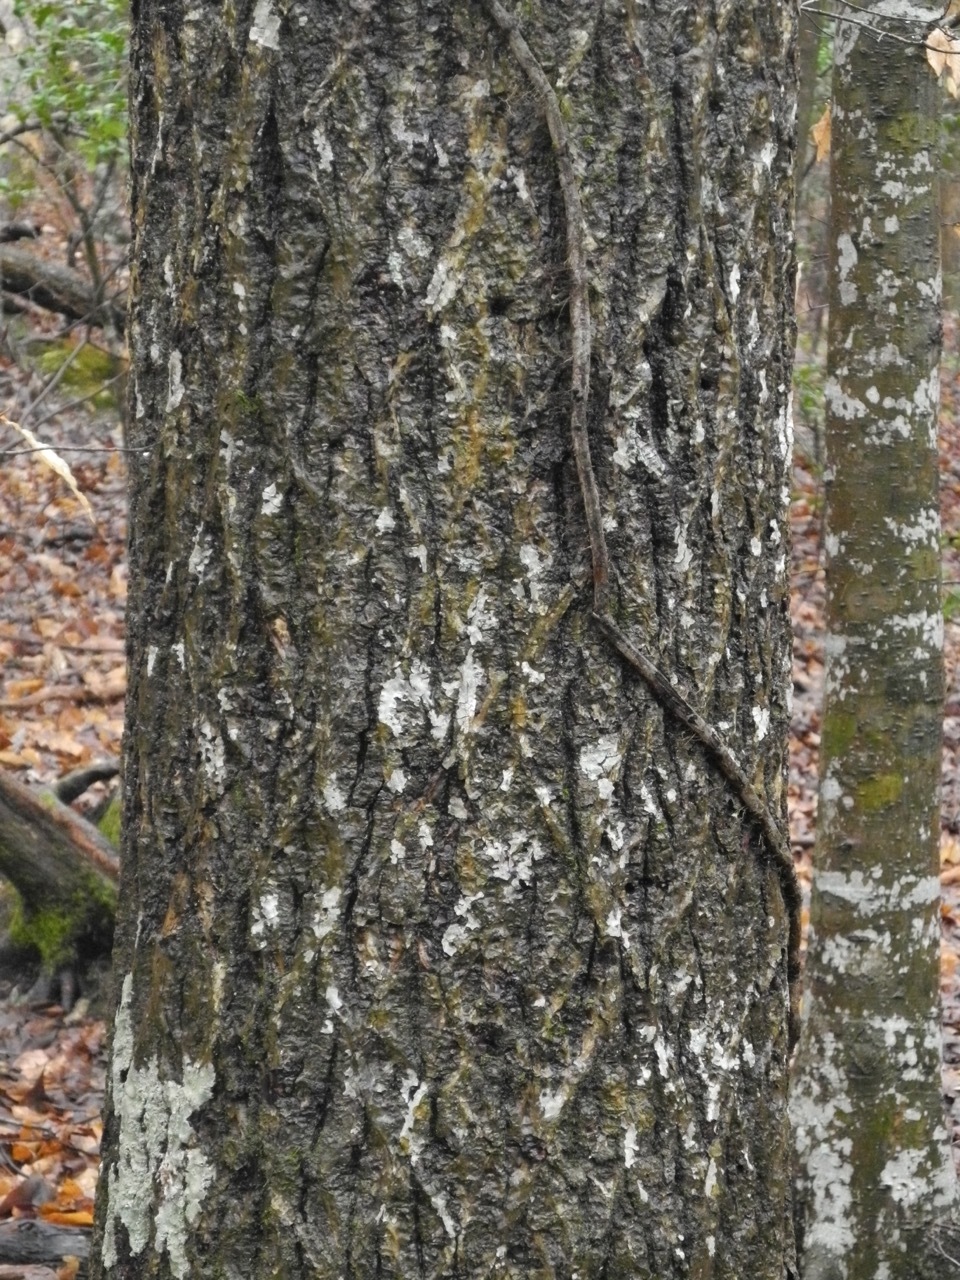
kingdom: Plantae
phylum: Tracheophyta
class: Magnoliopsida
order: Fagales
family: Juglandaceae
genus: Carya
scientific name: Carya glabra
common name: Pignut hickory
